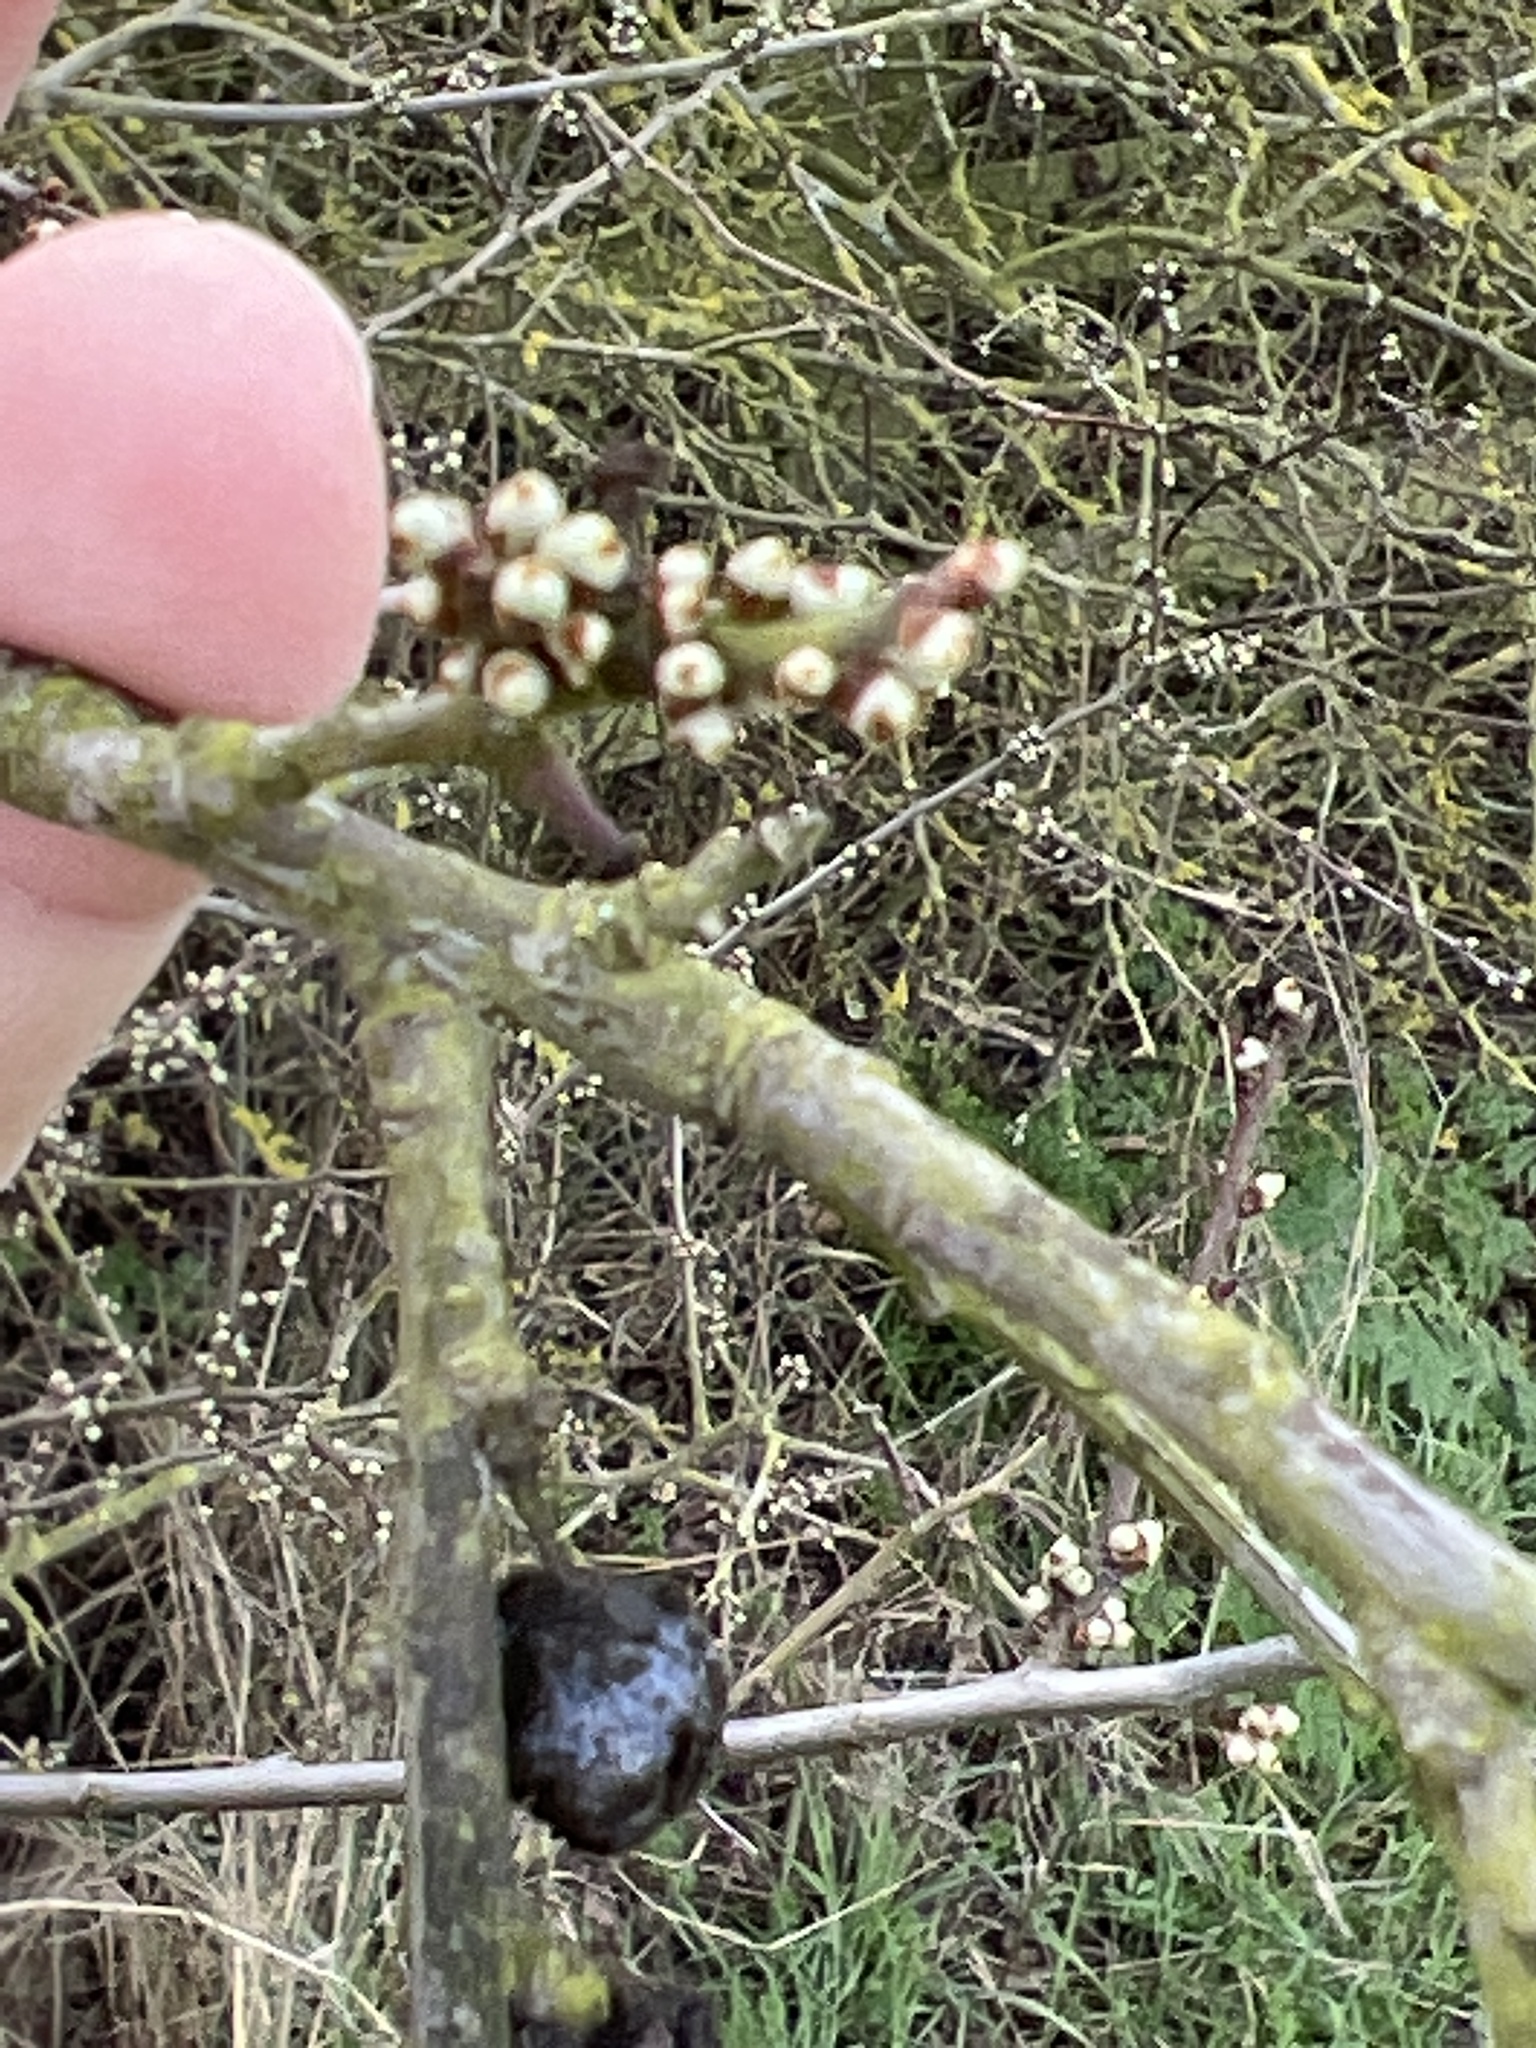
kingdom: Plantae
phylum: Tracheophyta
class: Magnoliopsida
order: Rosales
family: Rosaceae
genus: Prunus
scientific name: Prunus spinosa
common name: Blackthorn
